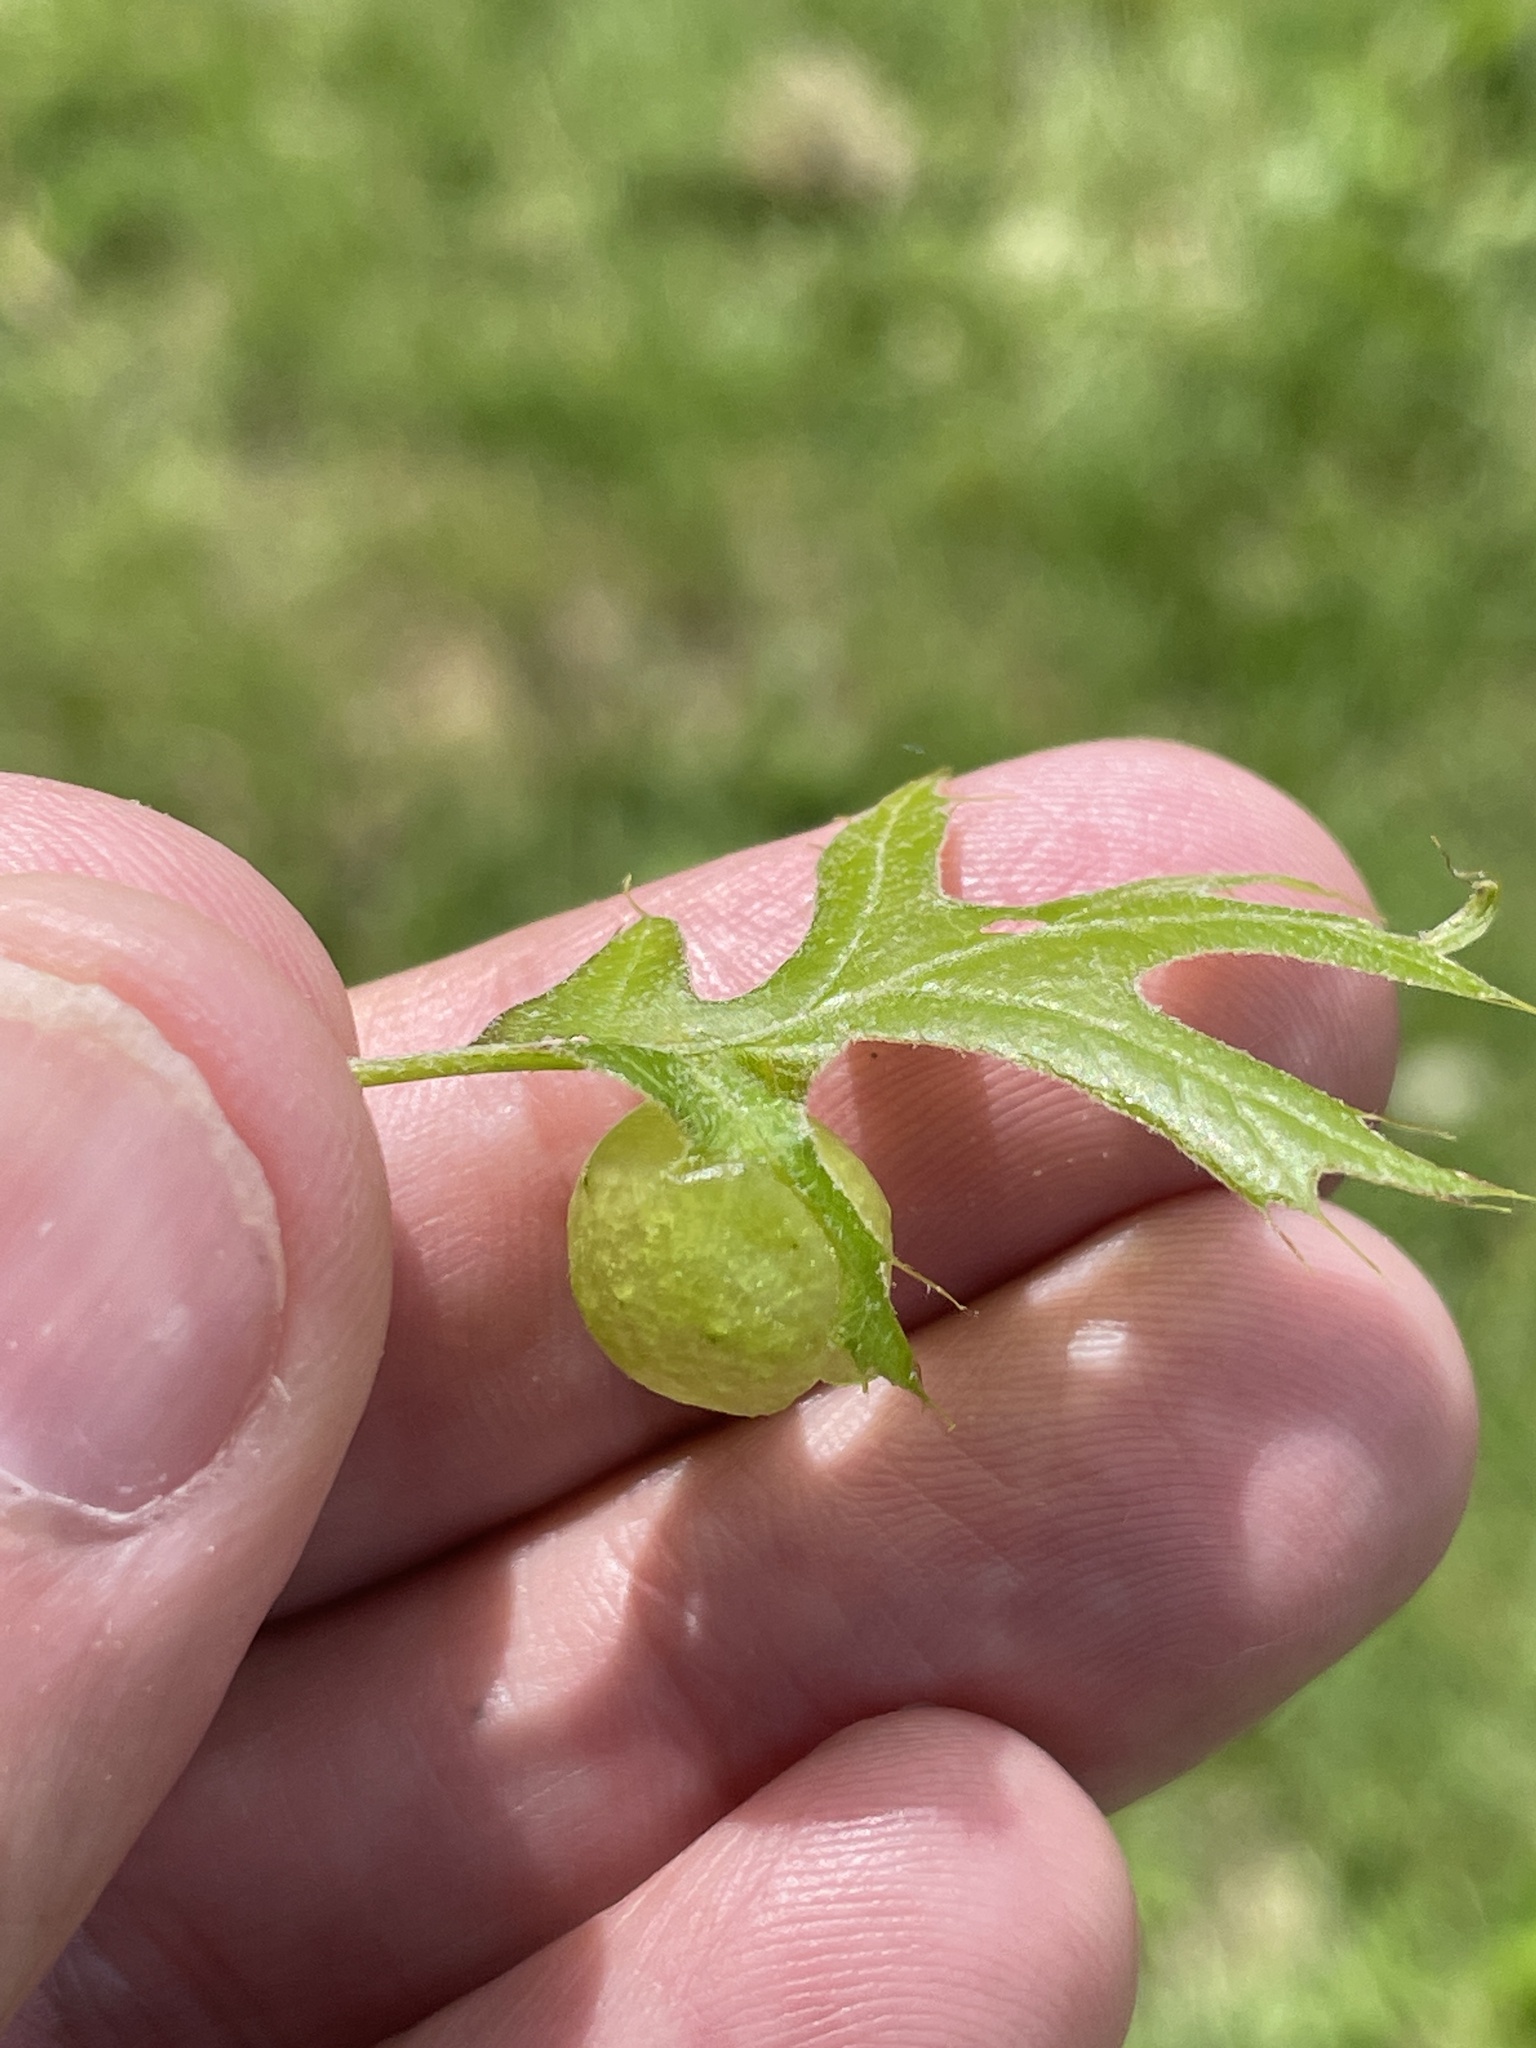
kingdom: Animalia
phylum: Arthropoda
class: Insecta
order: Hymenoptera
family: Cynipidae
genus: Amphibolips
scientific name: Amphibolips
